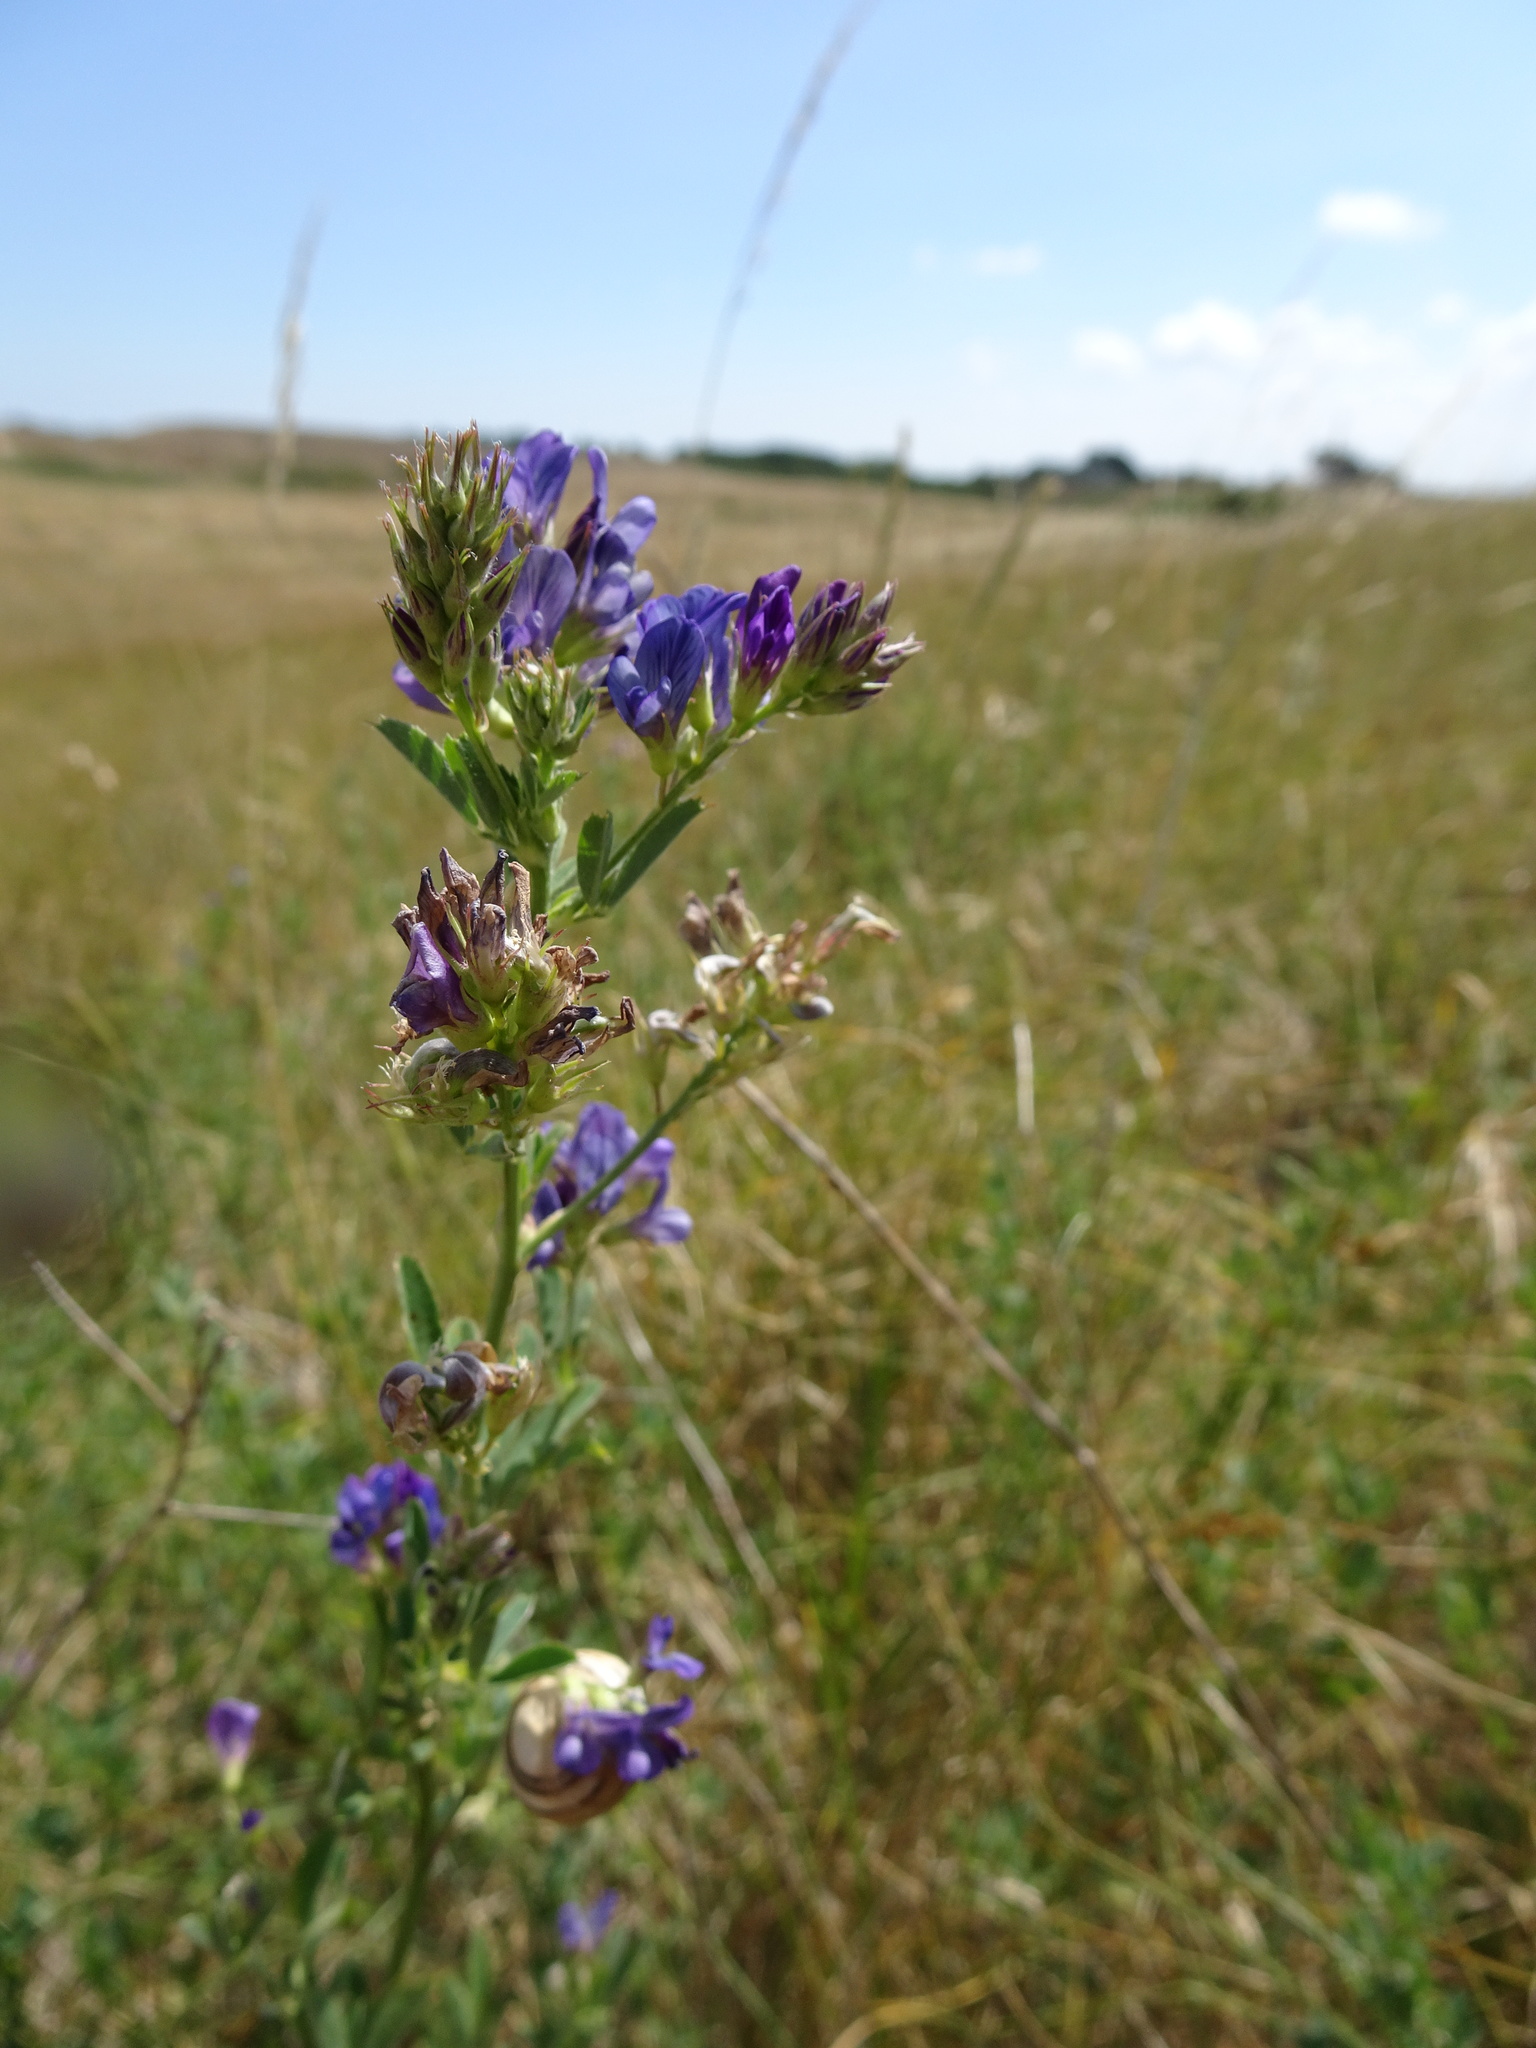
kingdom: Plantae
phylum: Tracheophyta
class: Magnoliopsida
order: Fabales
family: Fabaceae
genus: Medicago
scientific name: Medicago sativa
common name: Alfalfa
